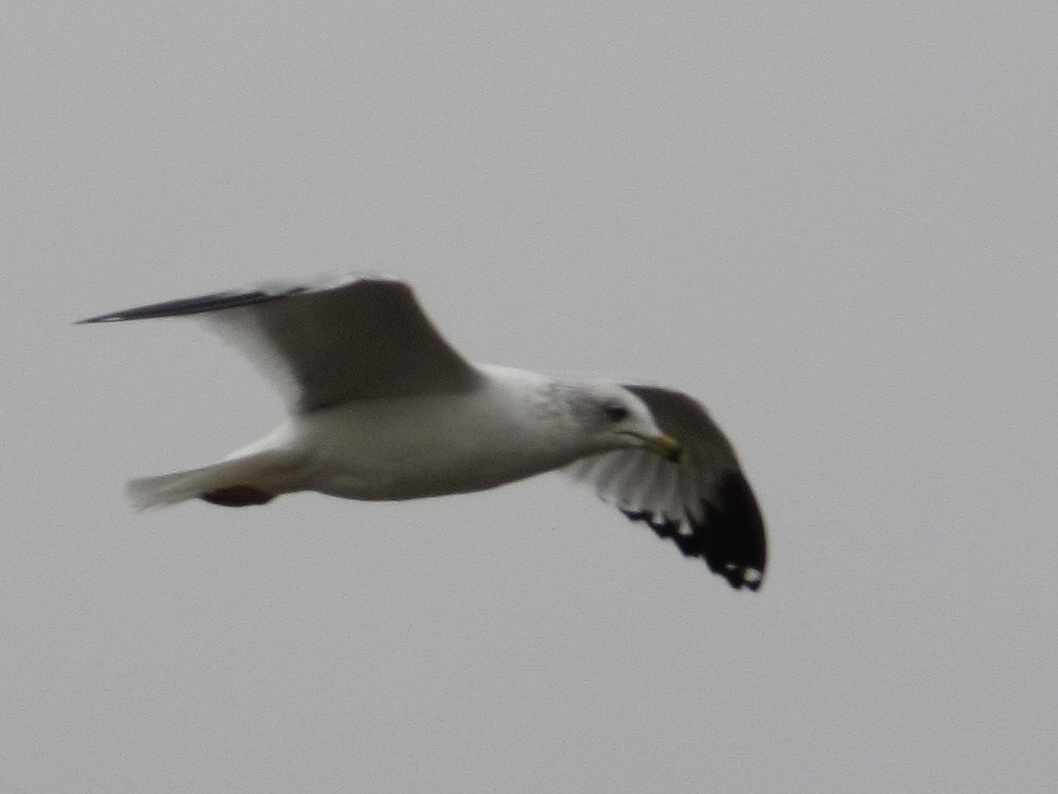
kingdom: Animalia
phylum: Chordata
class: Aves
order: Charadriiformes
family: Laridae
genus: Larus
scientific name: Larus delawarensis
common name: Ring-billed gull
